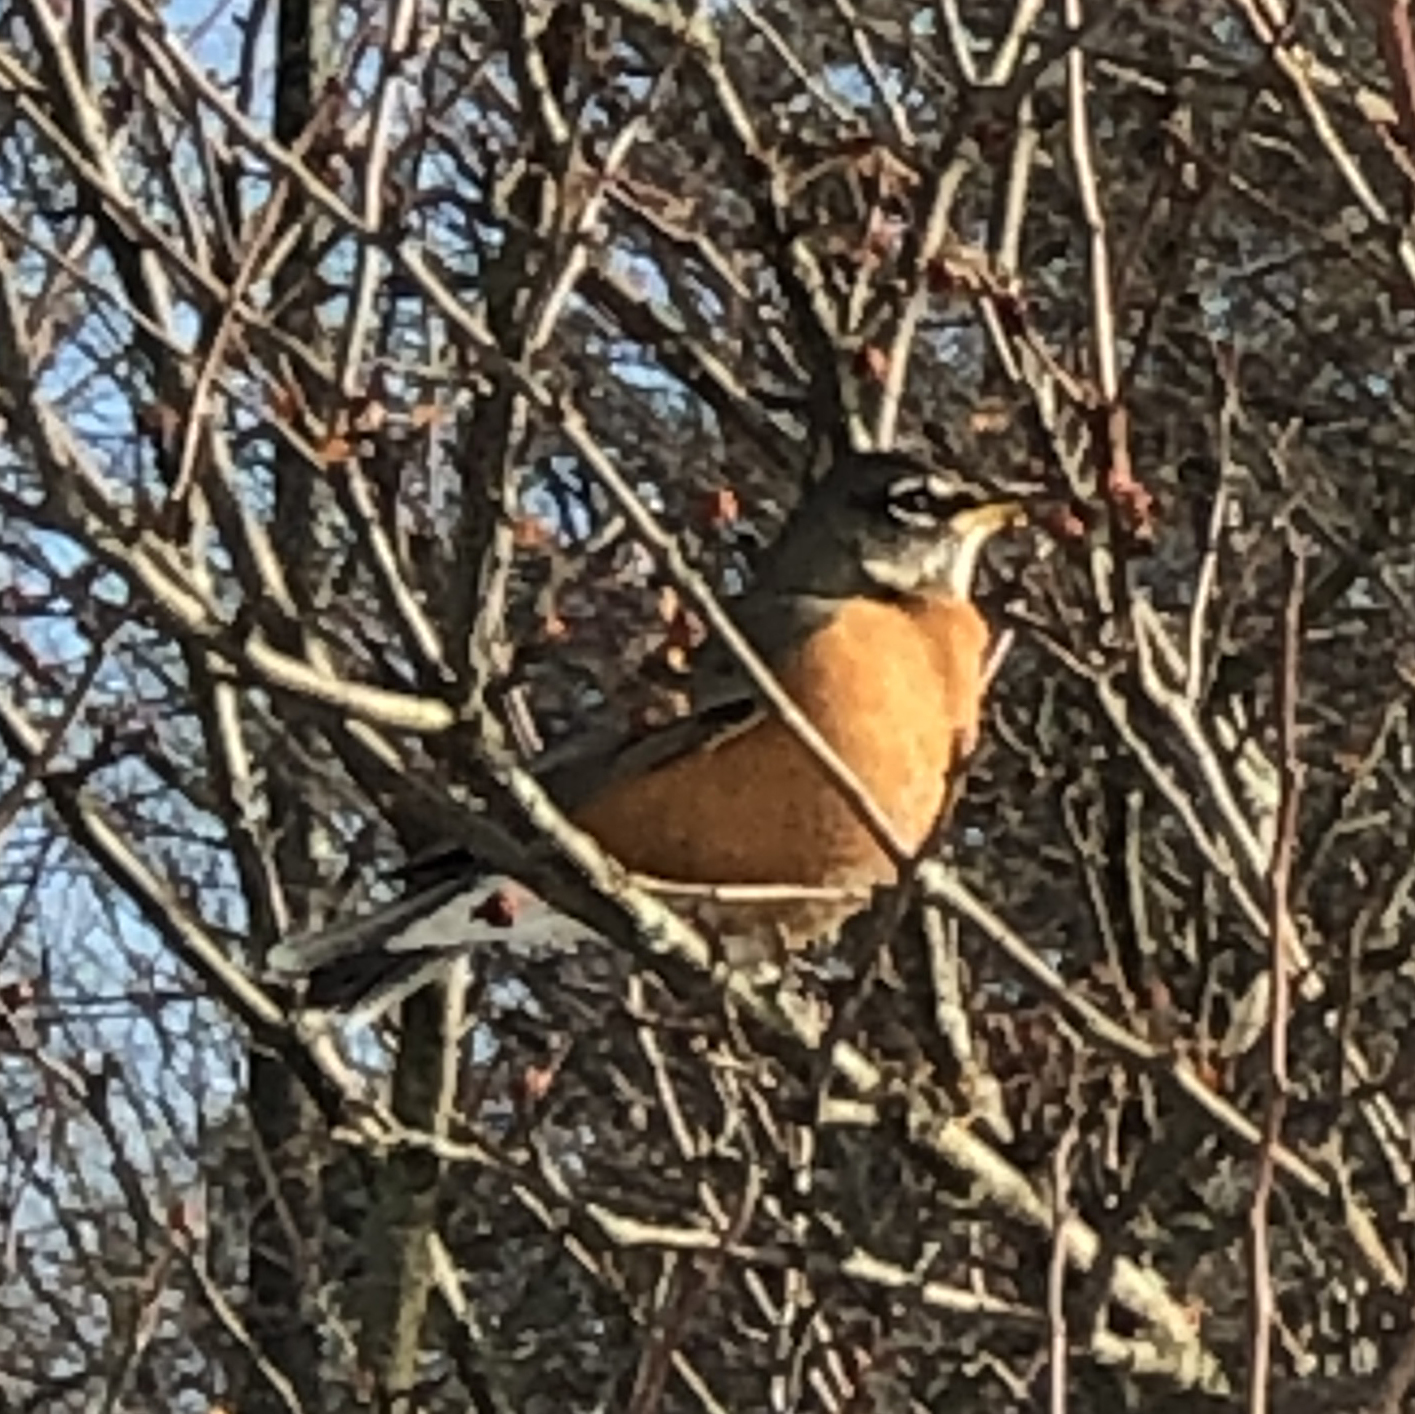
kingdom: Animalia
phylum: Chordata
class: Aves
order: Passeriformes
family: Turdidae
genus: Turdus
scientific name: Turdus migratorius
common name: American robin
